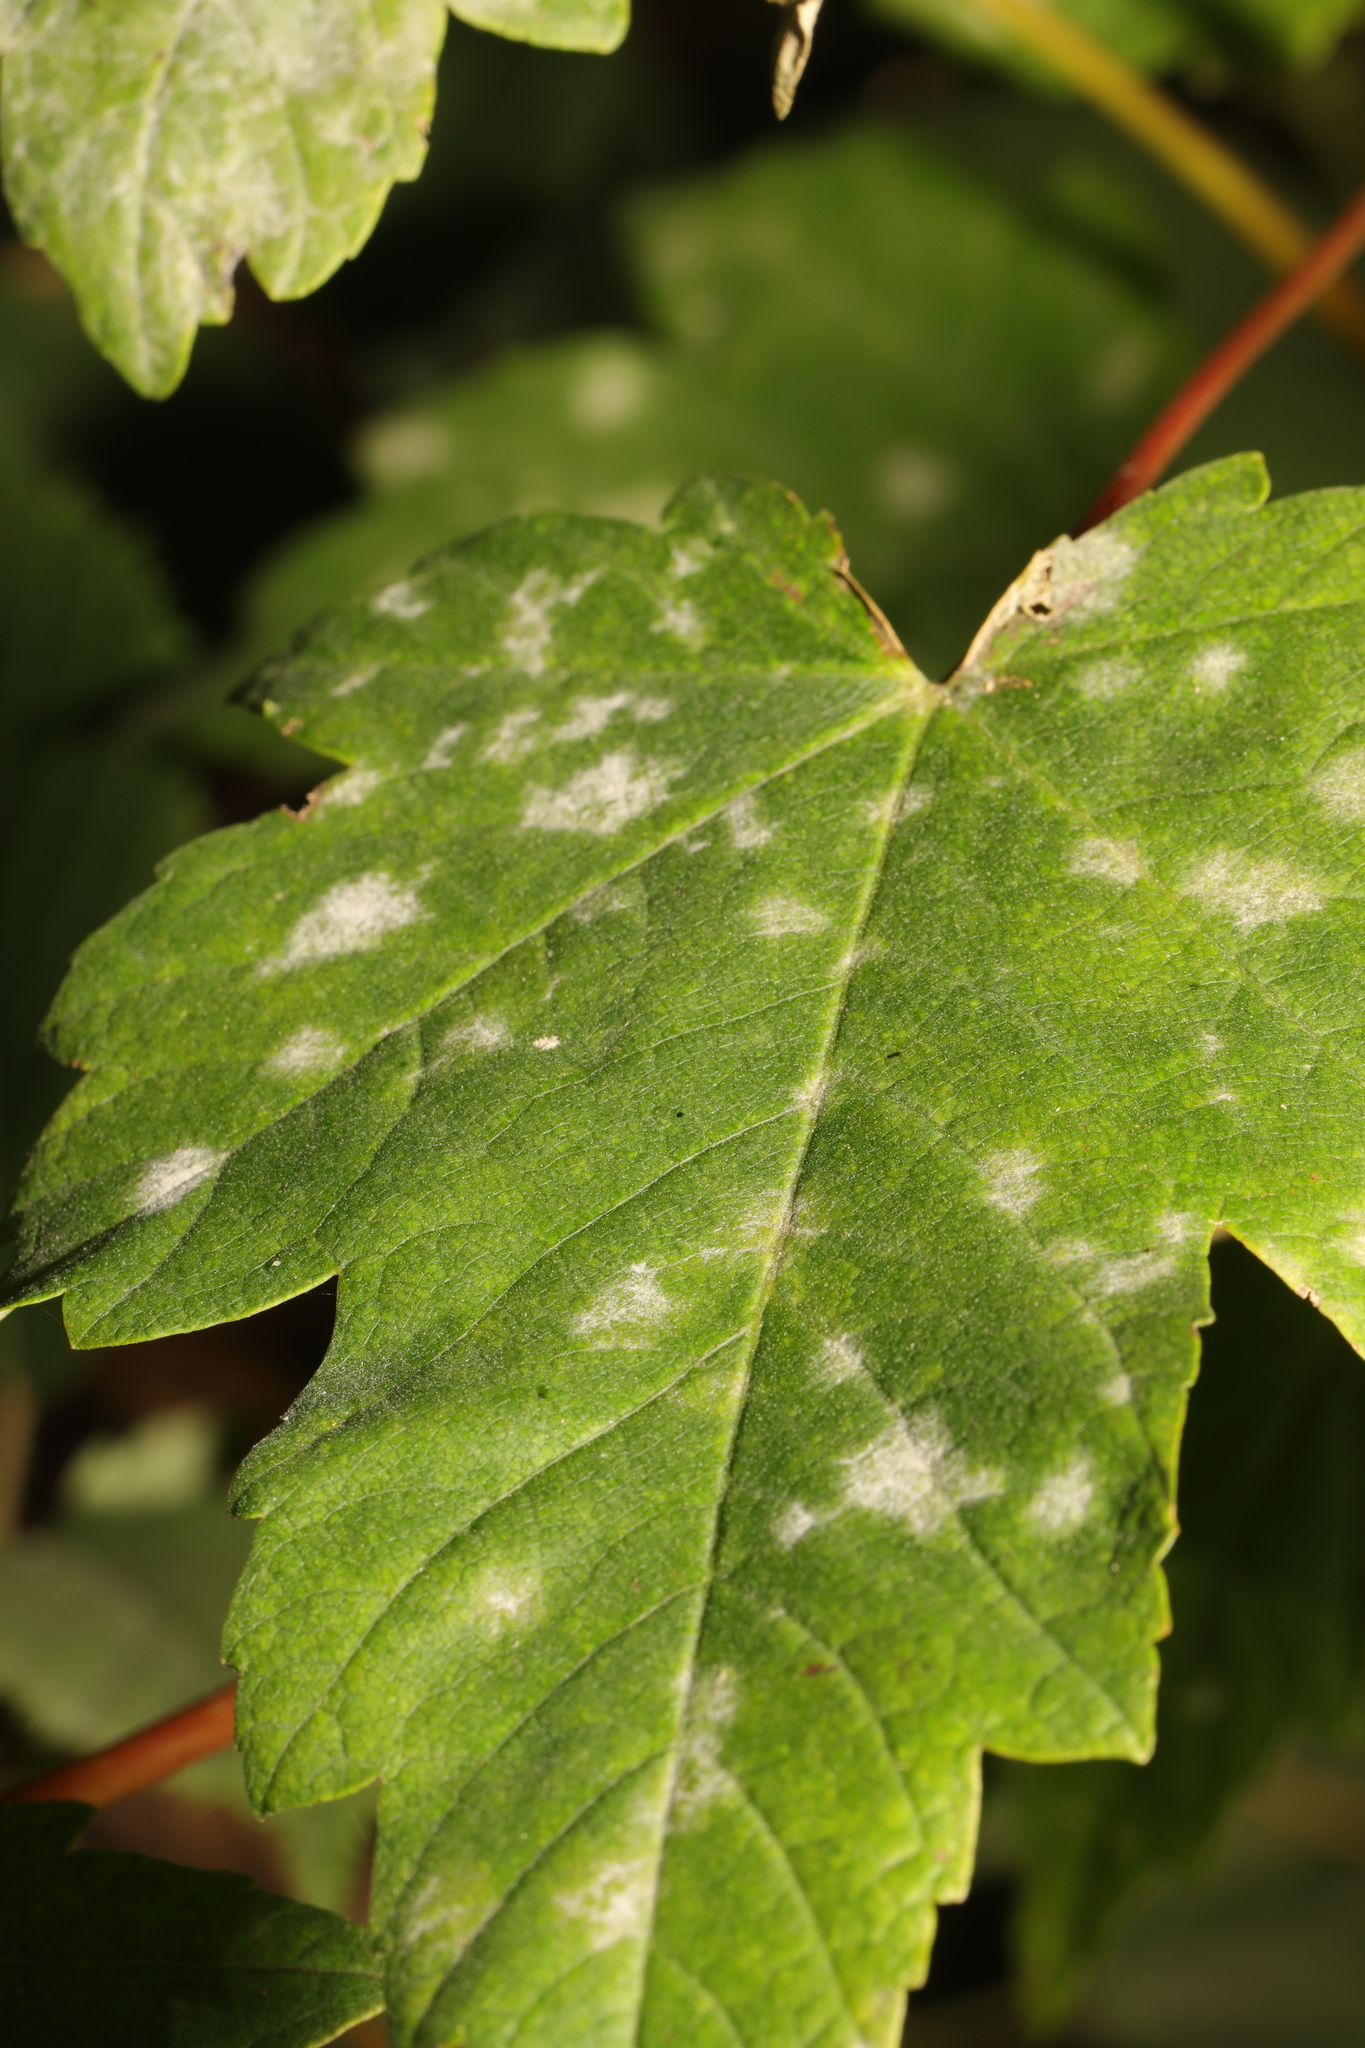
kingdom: Fungi
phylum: Ascomycota
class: Leotiomycetes
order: Helotiales
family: Erysiphaceae
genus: Sawadaea
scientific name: Sawadaea bicornis
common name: Maple mildew
